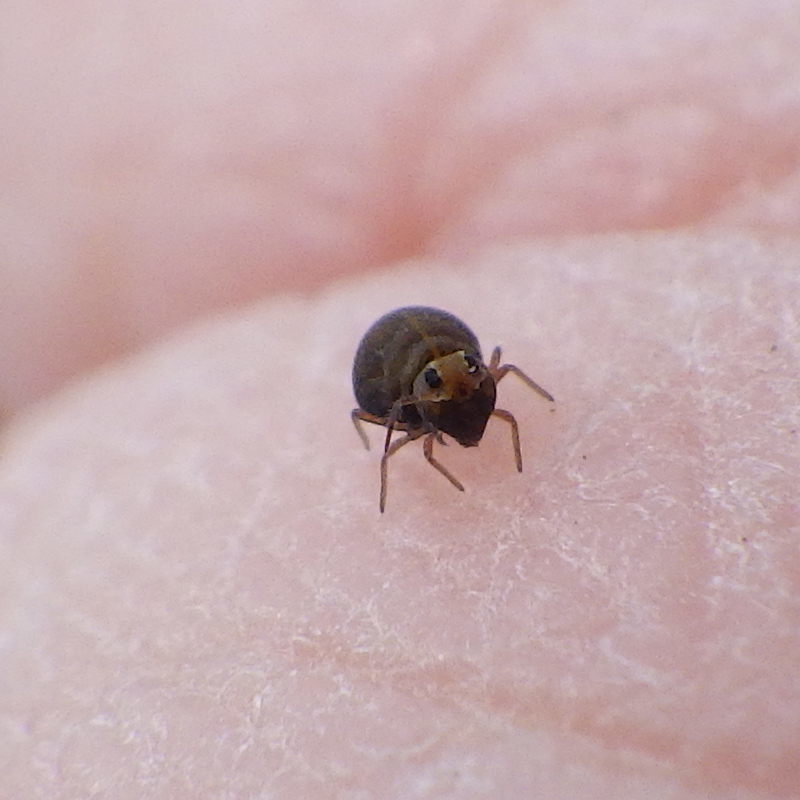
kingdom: Animalia
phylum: Arthropoda
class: Collembola
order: Symphypleona
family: Bourletiellidae
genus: Bourletiella
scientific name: Bourletiella hortensis
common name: Garden springtail
